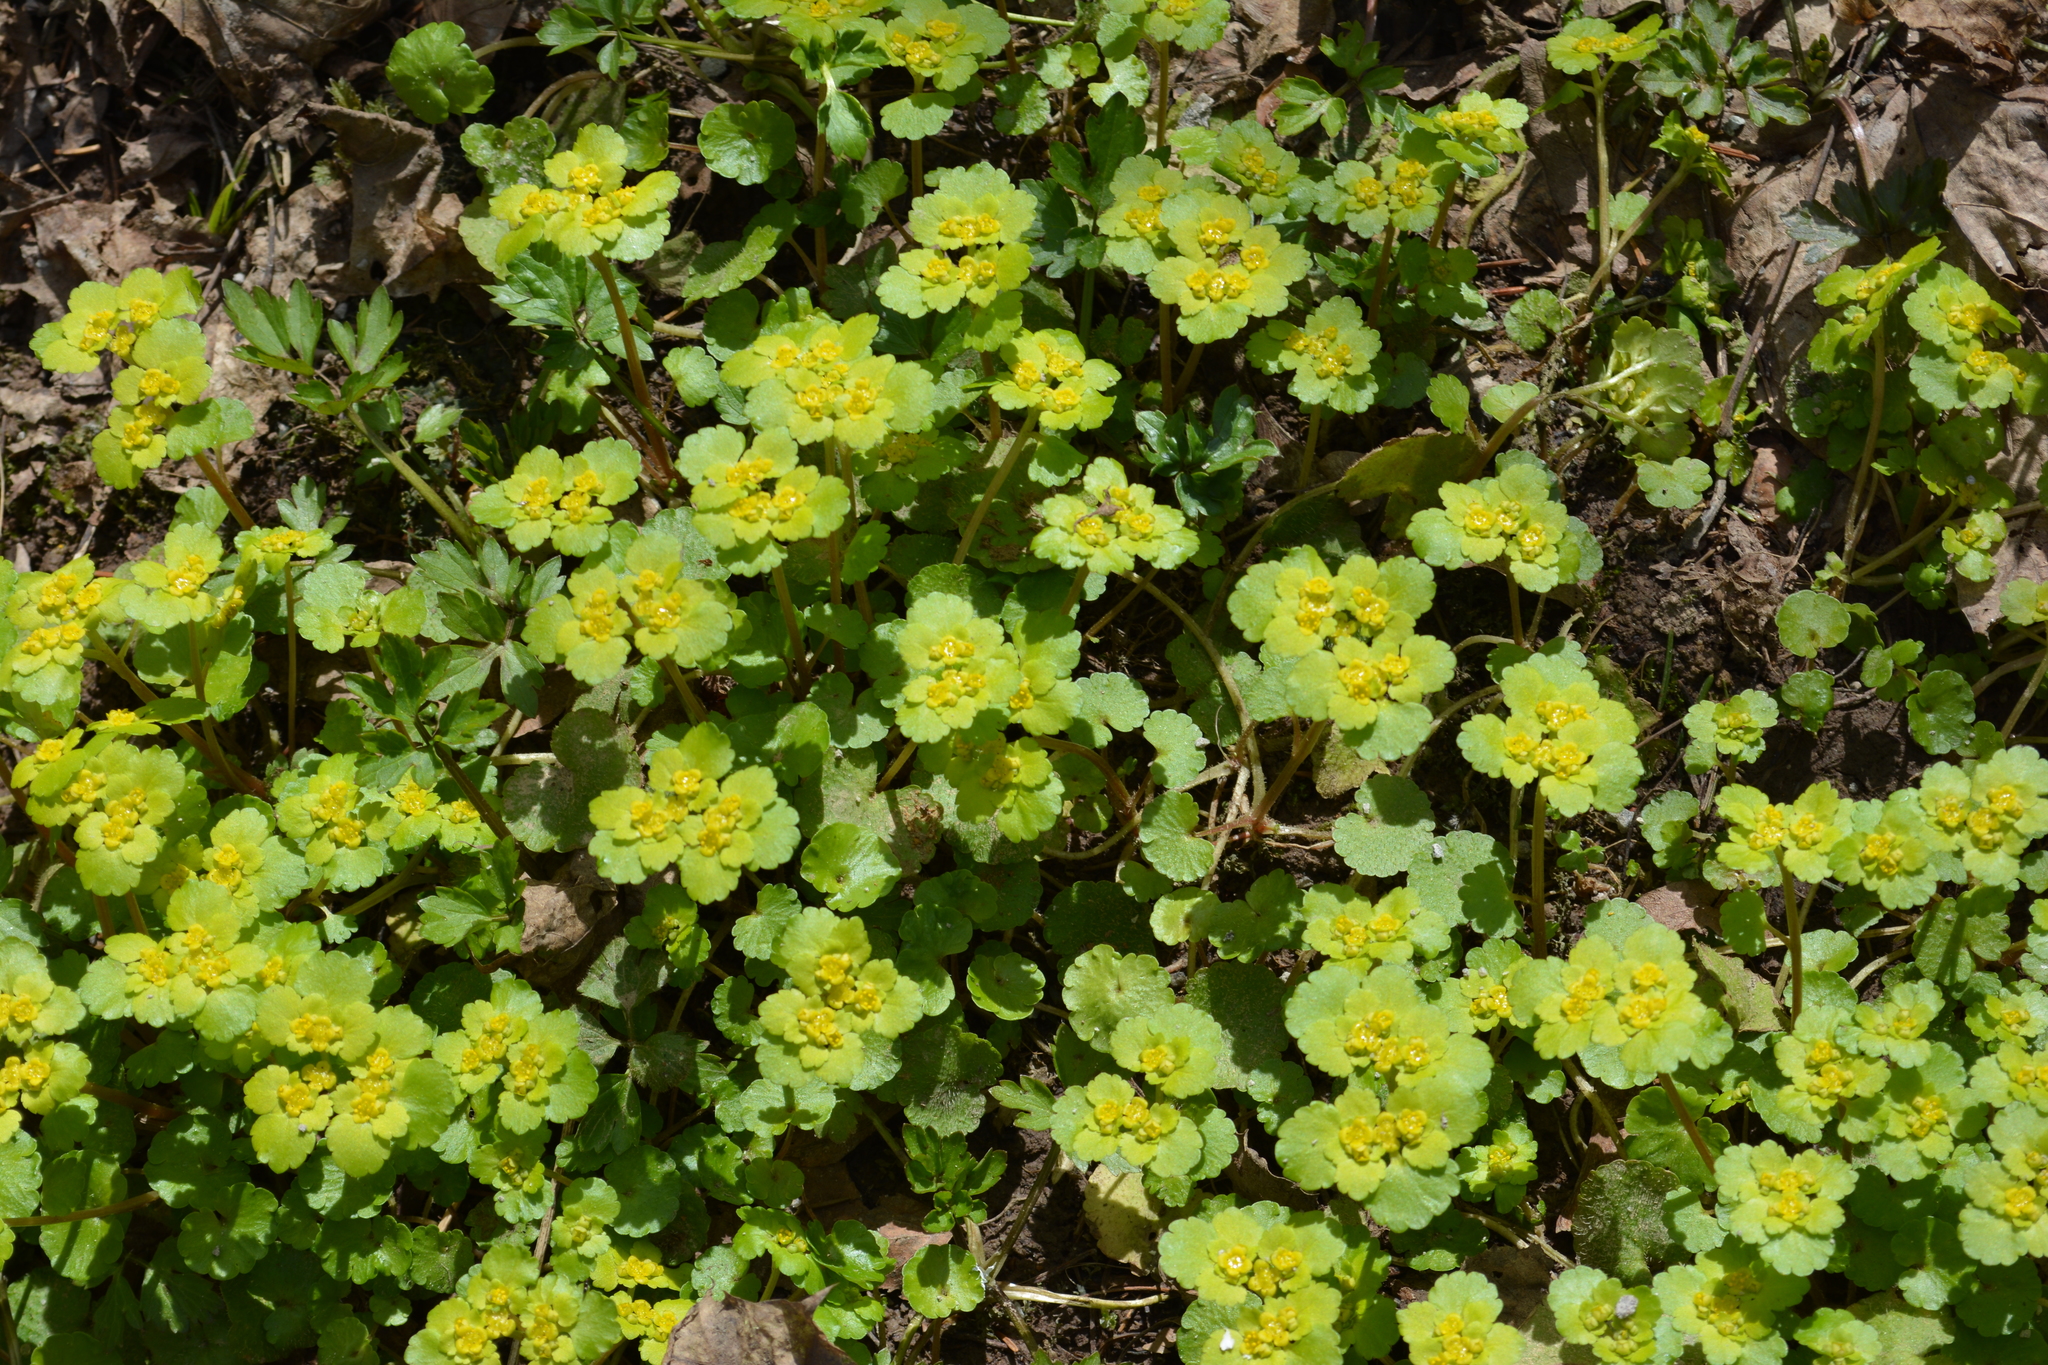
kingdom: Plantae
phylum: Tracheophyta
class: Magnoliopsida
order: Saxifragales
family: Saxifragaceae
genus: Chrysosplenium
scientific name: Chrysosplenium alternifolium
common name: Alternate-leaved golden-saxifrage
